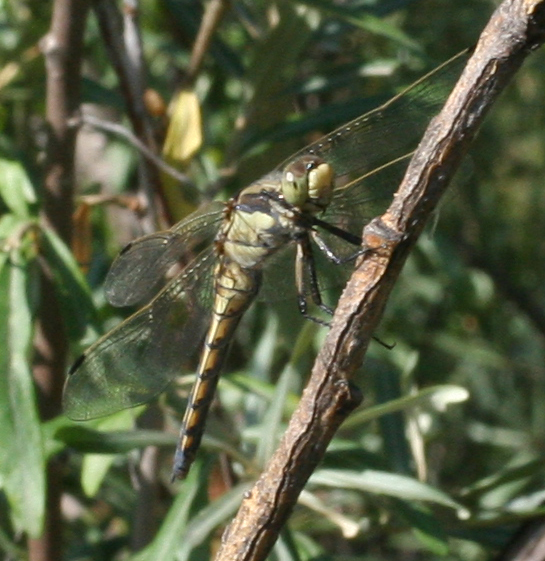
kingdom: Animalia
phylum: Arthropoda
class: Insecta
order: Odonata
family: Libellulidae
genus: Orthetrum
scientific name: Orthetrum cancellatum
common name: Black-tailed skimmer
